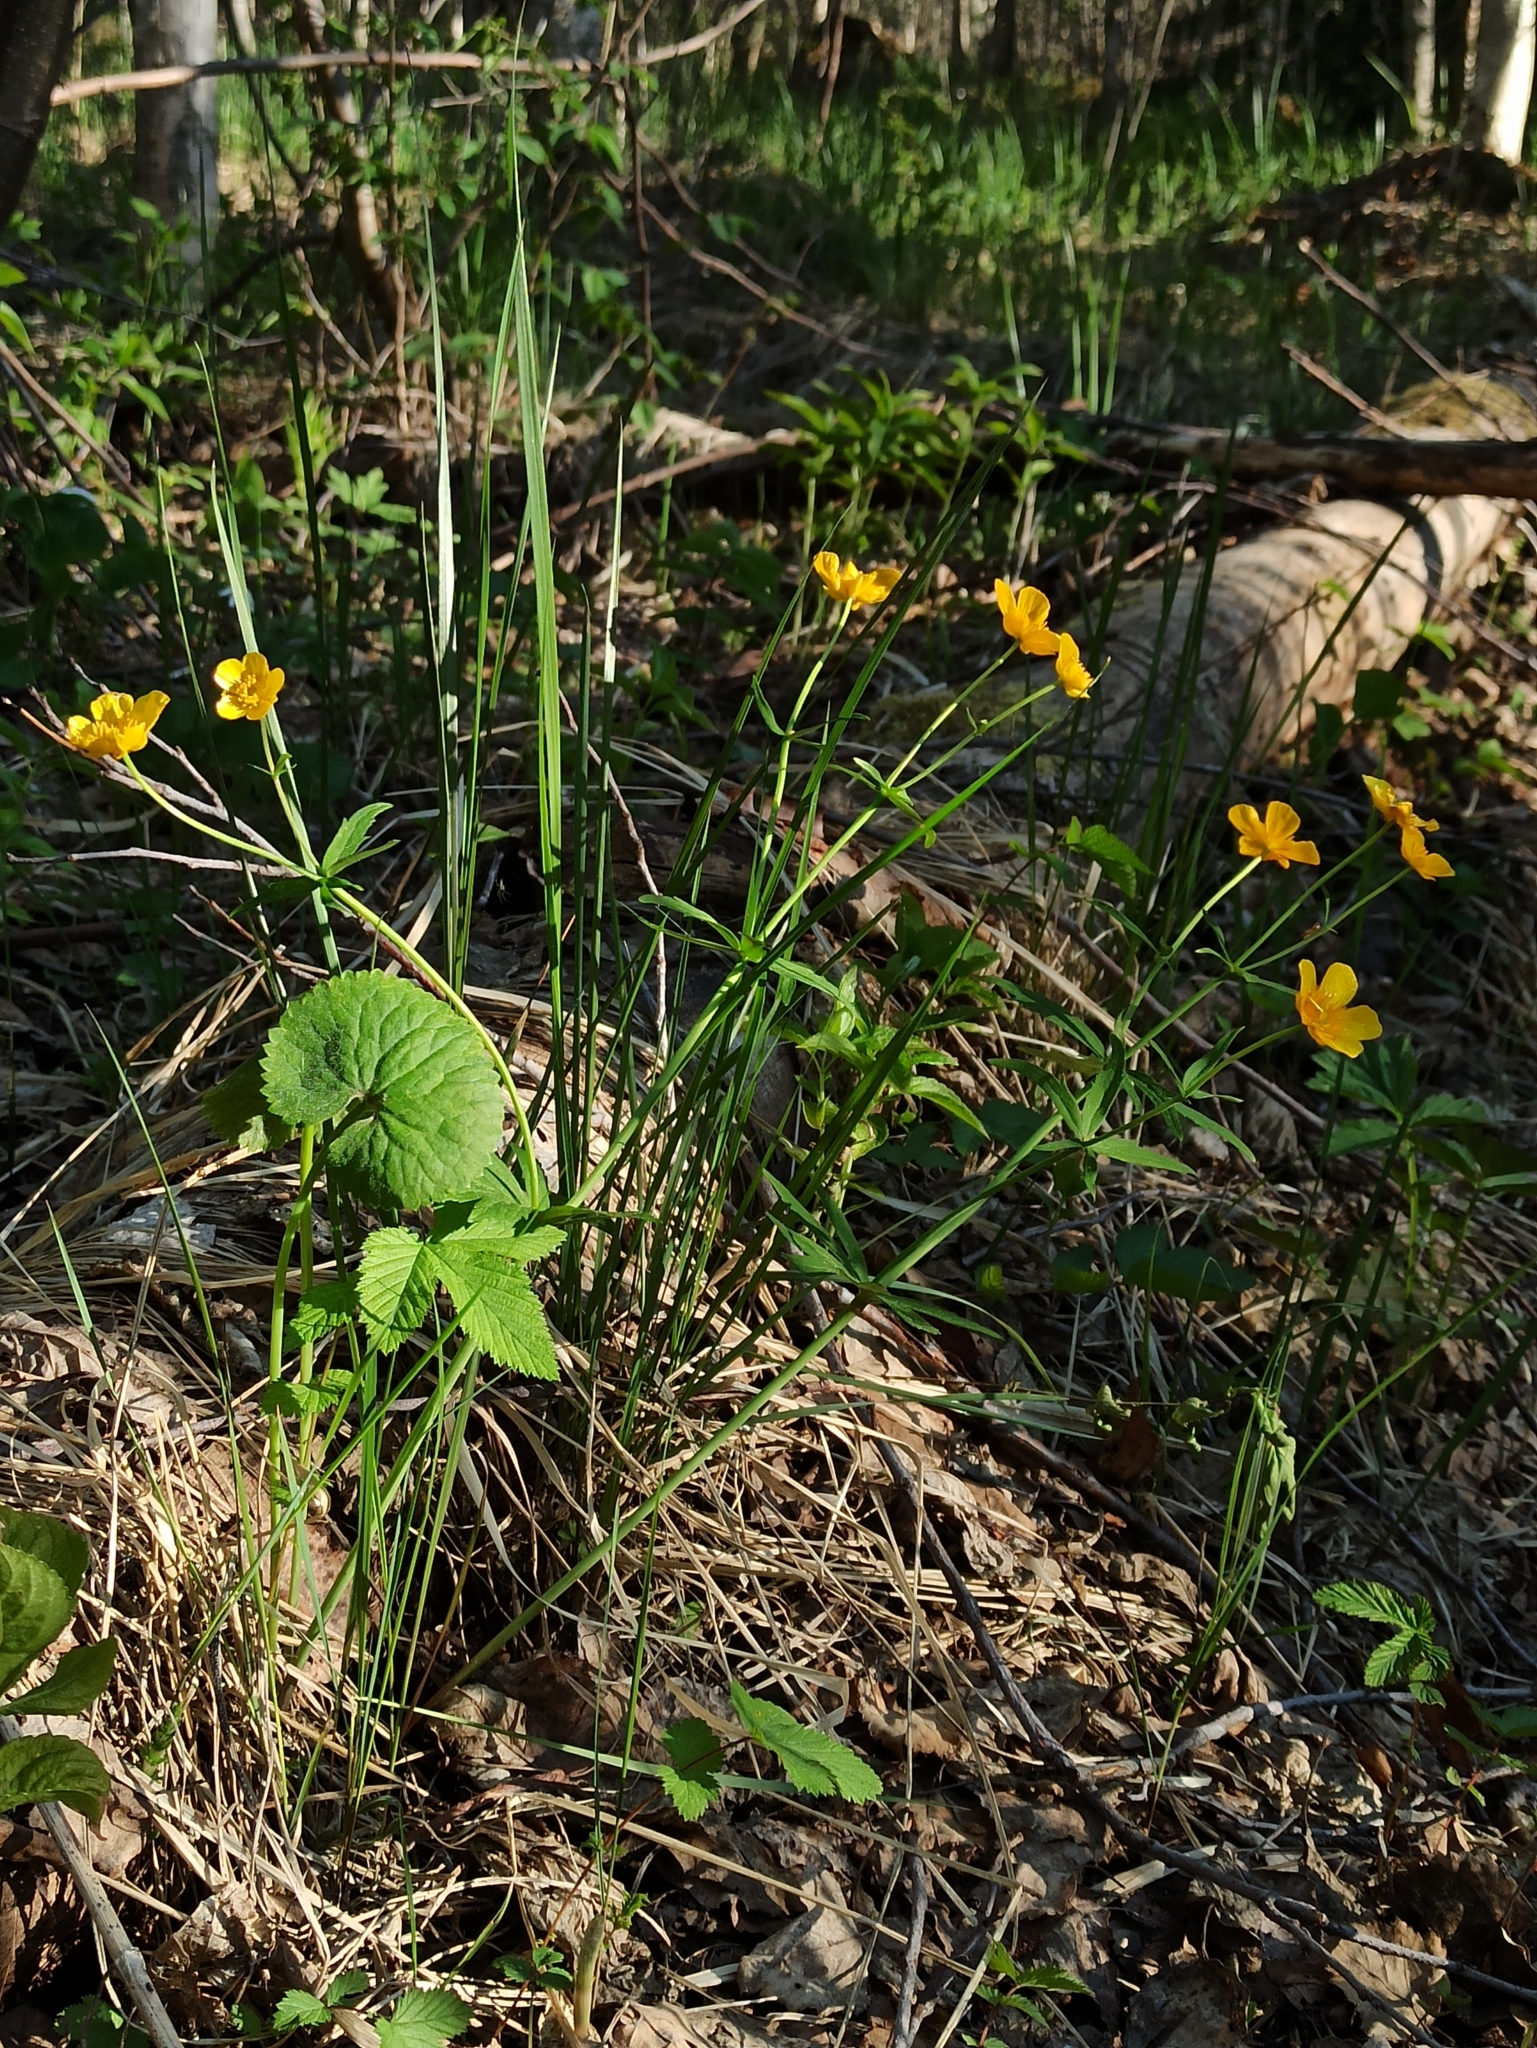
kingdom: Plantae
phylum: Tracheophyta
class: Magnoliopsida
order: Ranunculales
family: Ranunculaceae
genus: Ranunculus
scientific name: Ranunculus cassubicus
